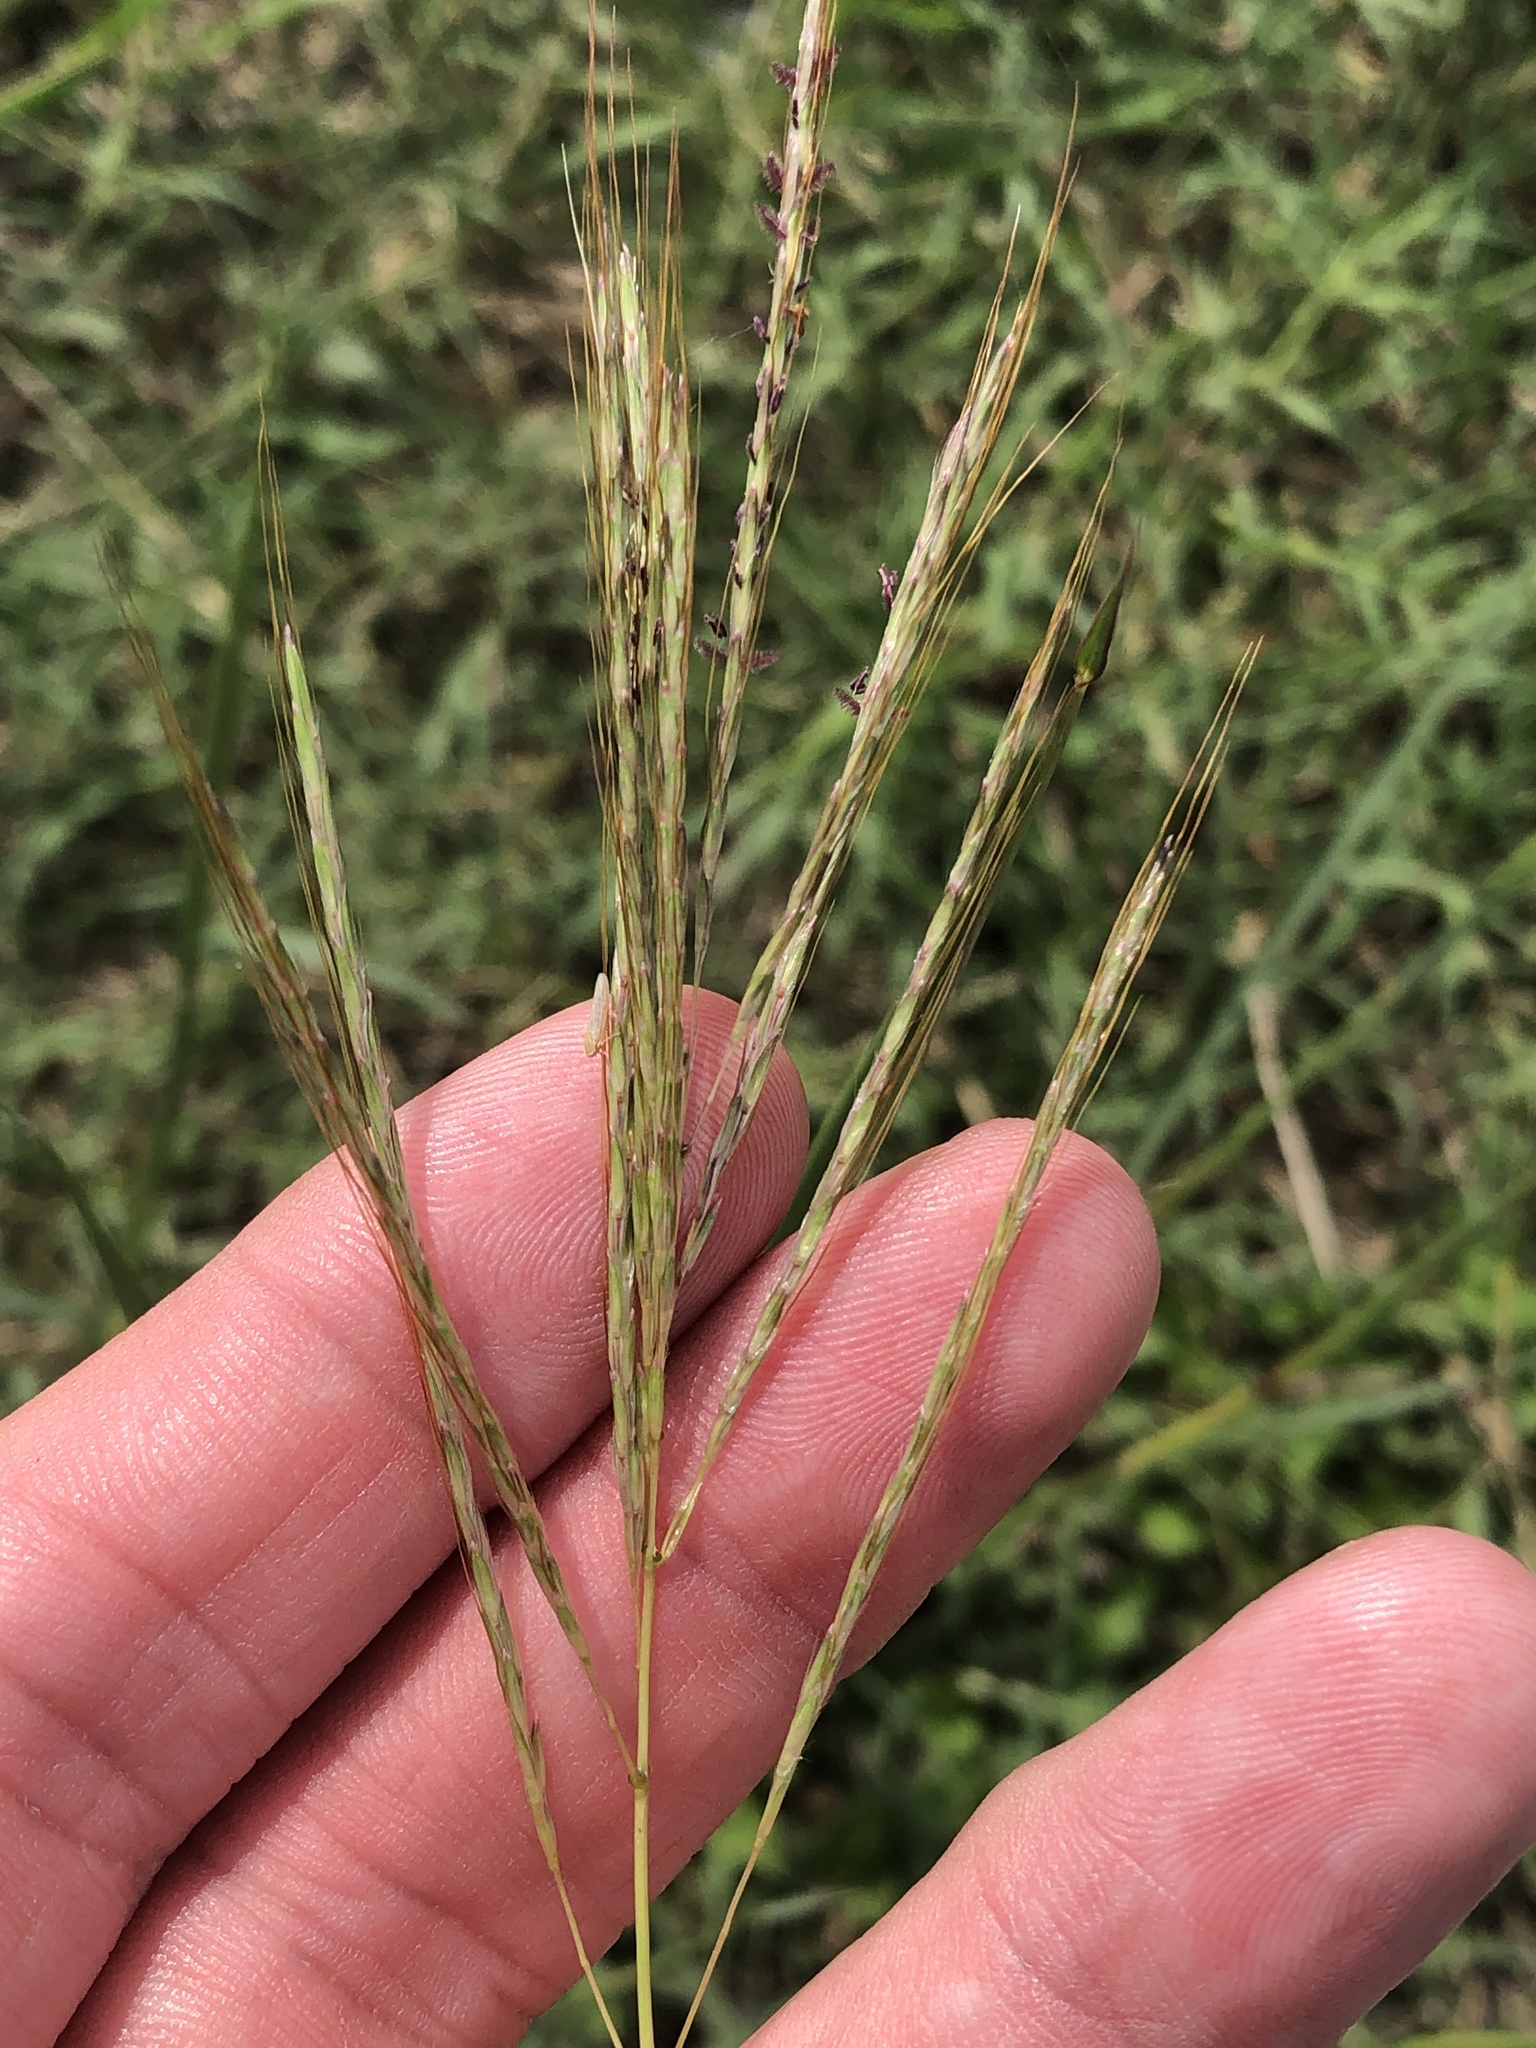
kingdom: Plantae
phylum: Tracheophyta
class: Liliopsida
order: Poales
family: Poaceae
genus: Bothriochloa
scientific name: Bothriochloa ischaemum
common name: Yellow bluestem
